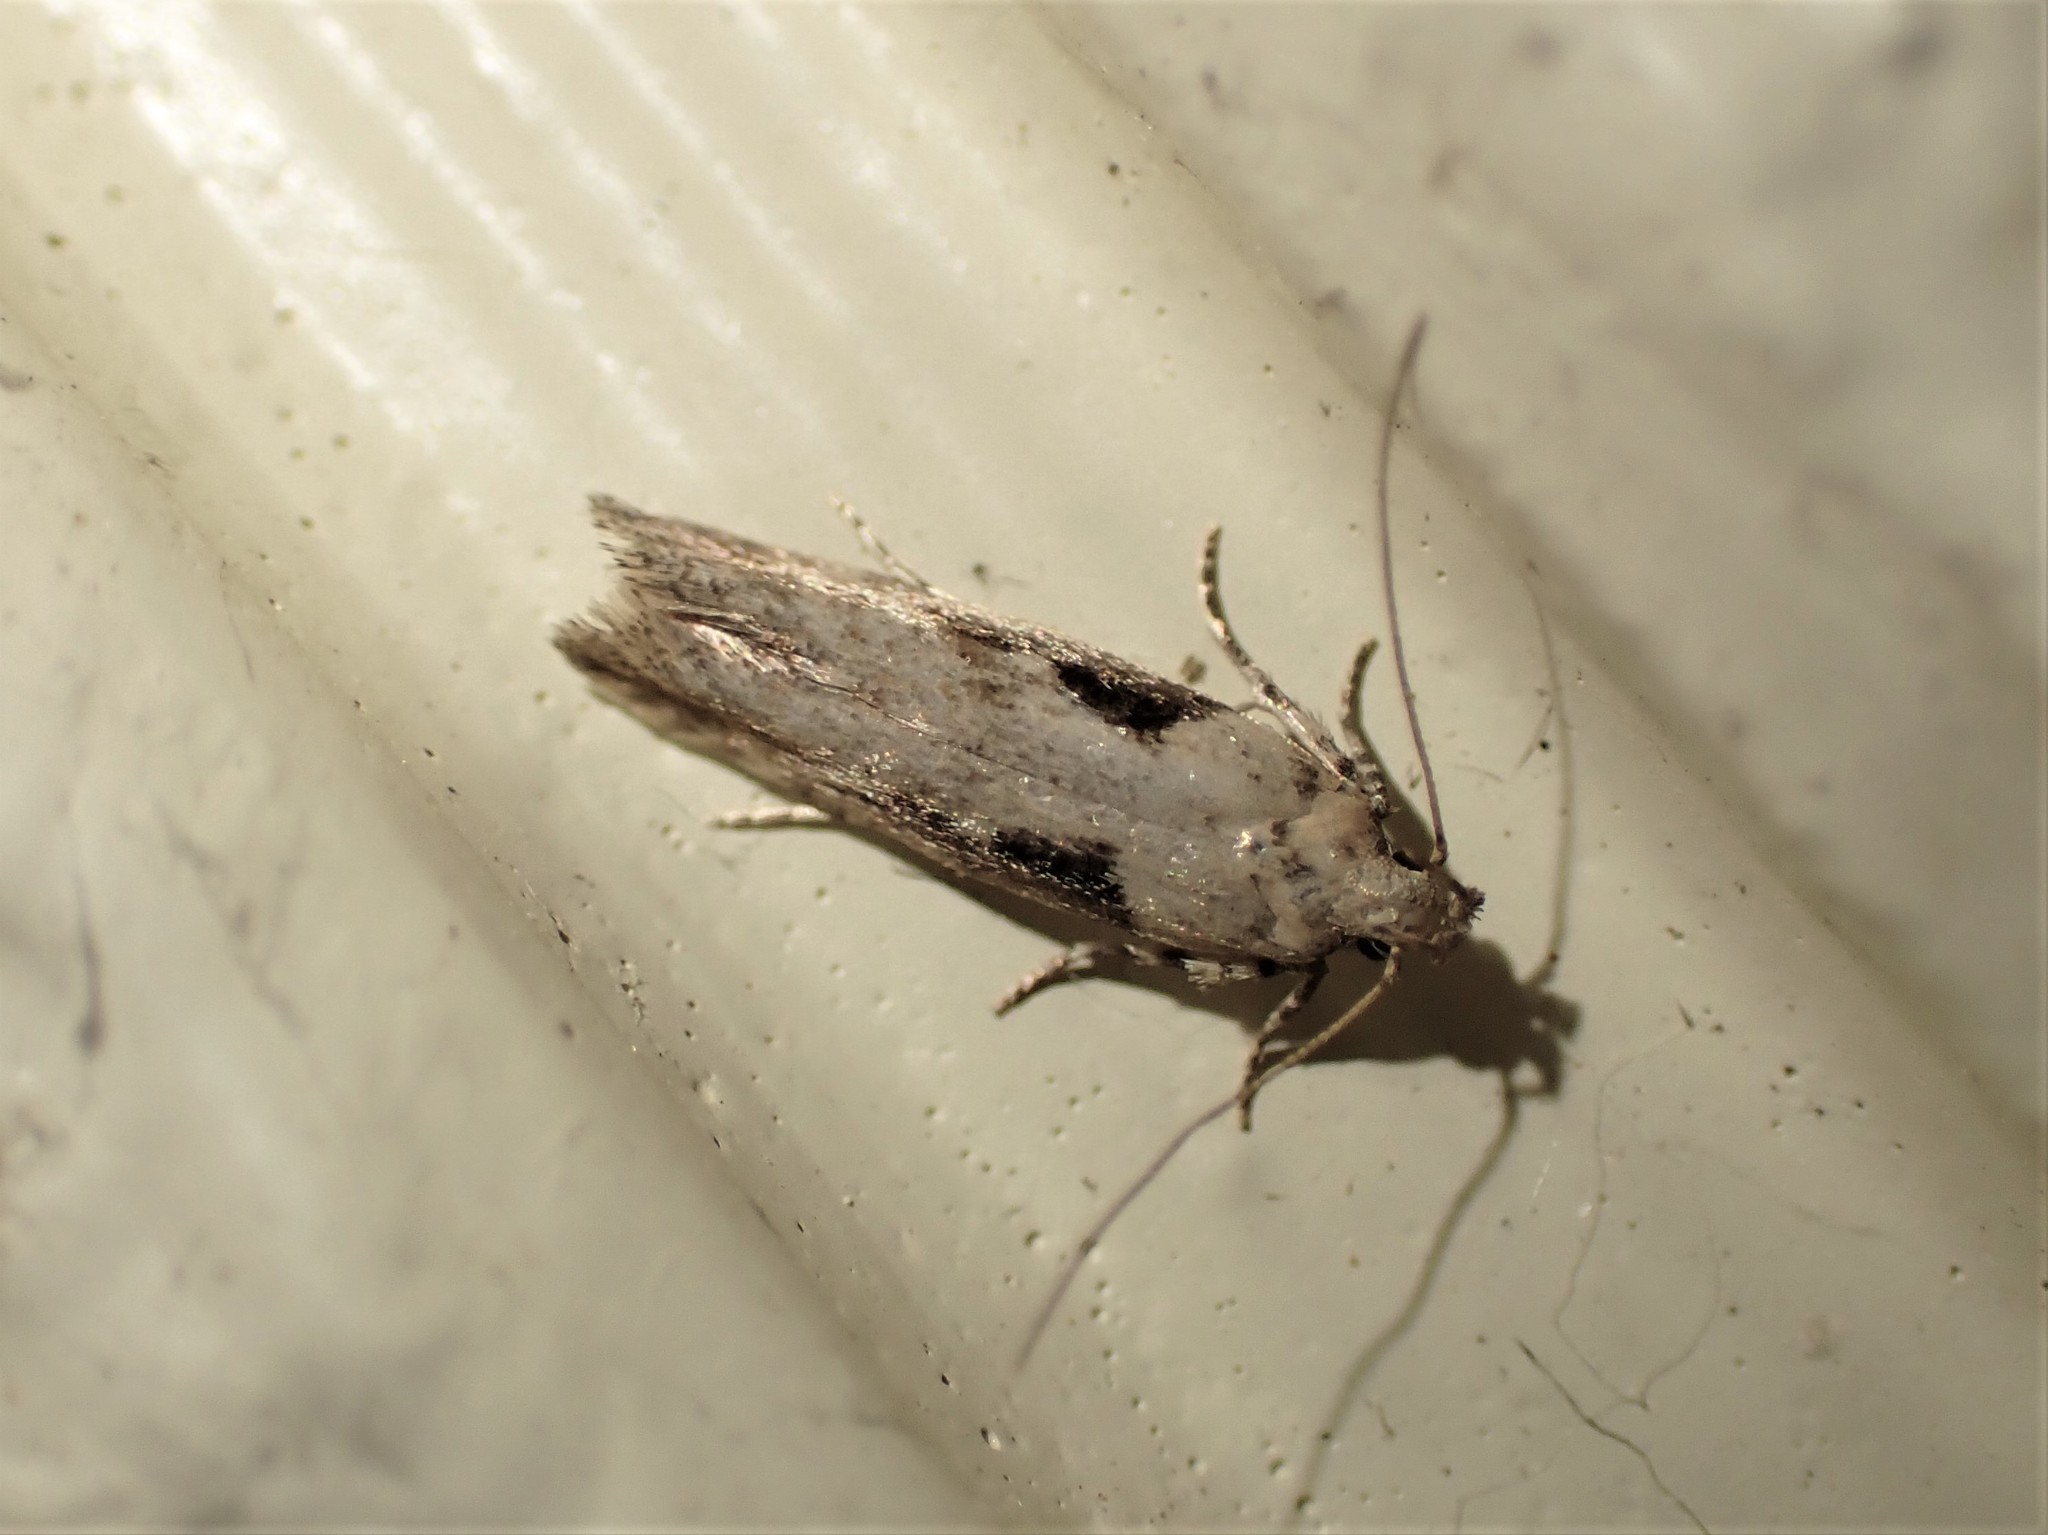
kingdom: Animalia
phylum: Arthropoda
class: Insecta
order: Lepidoptera
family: Gelechiidae
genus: Symmetrischema
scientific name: Symmetrischema tangolias
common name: Moth
